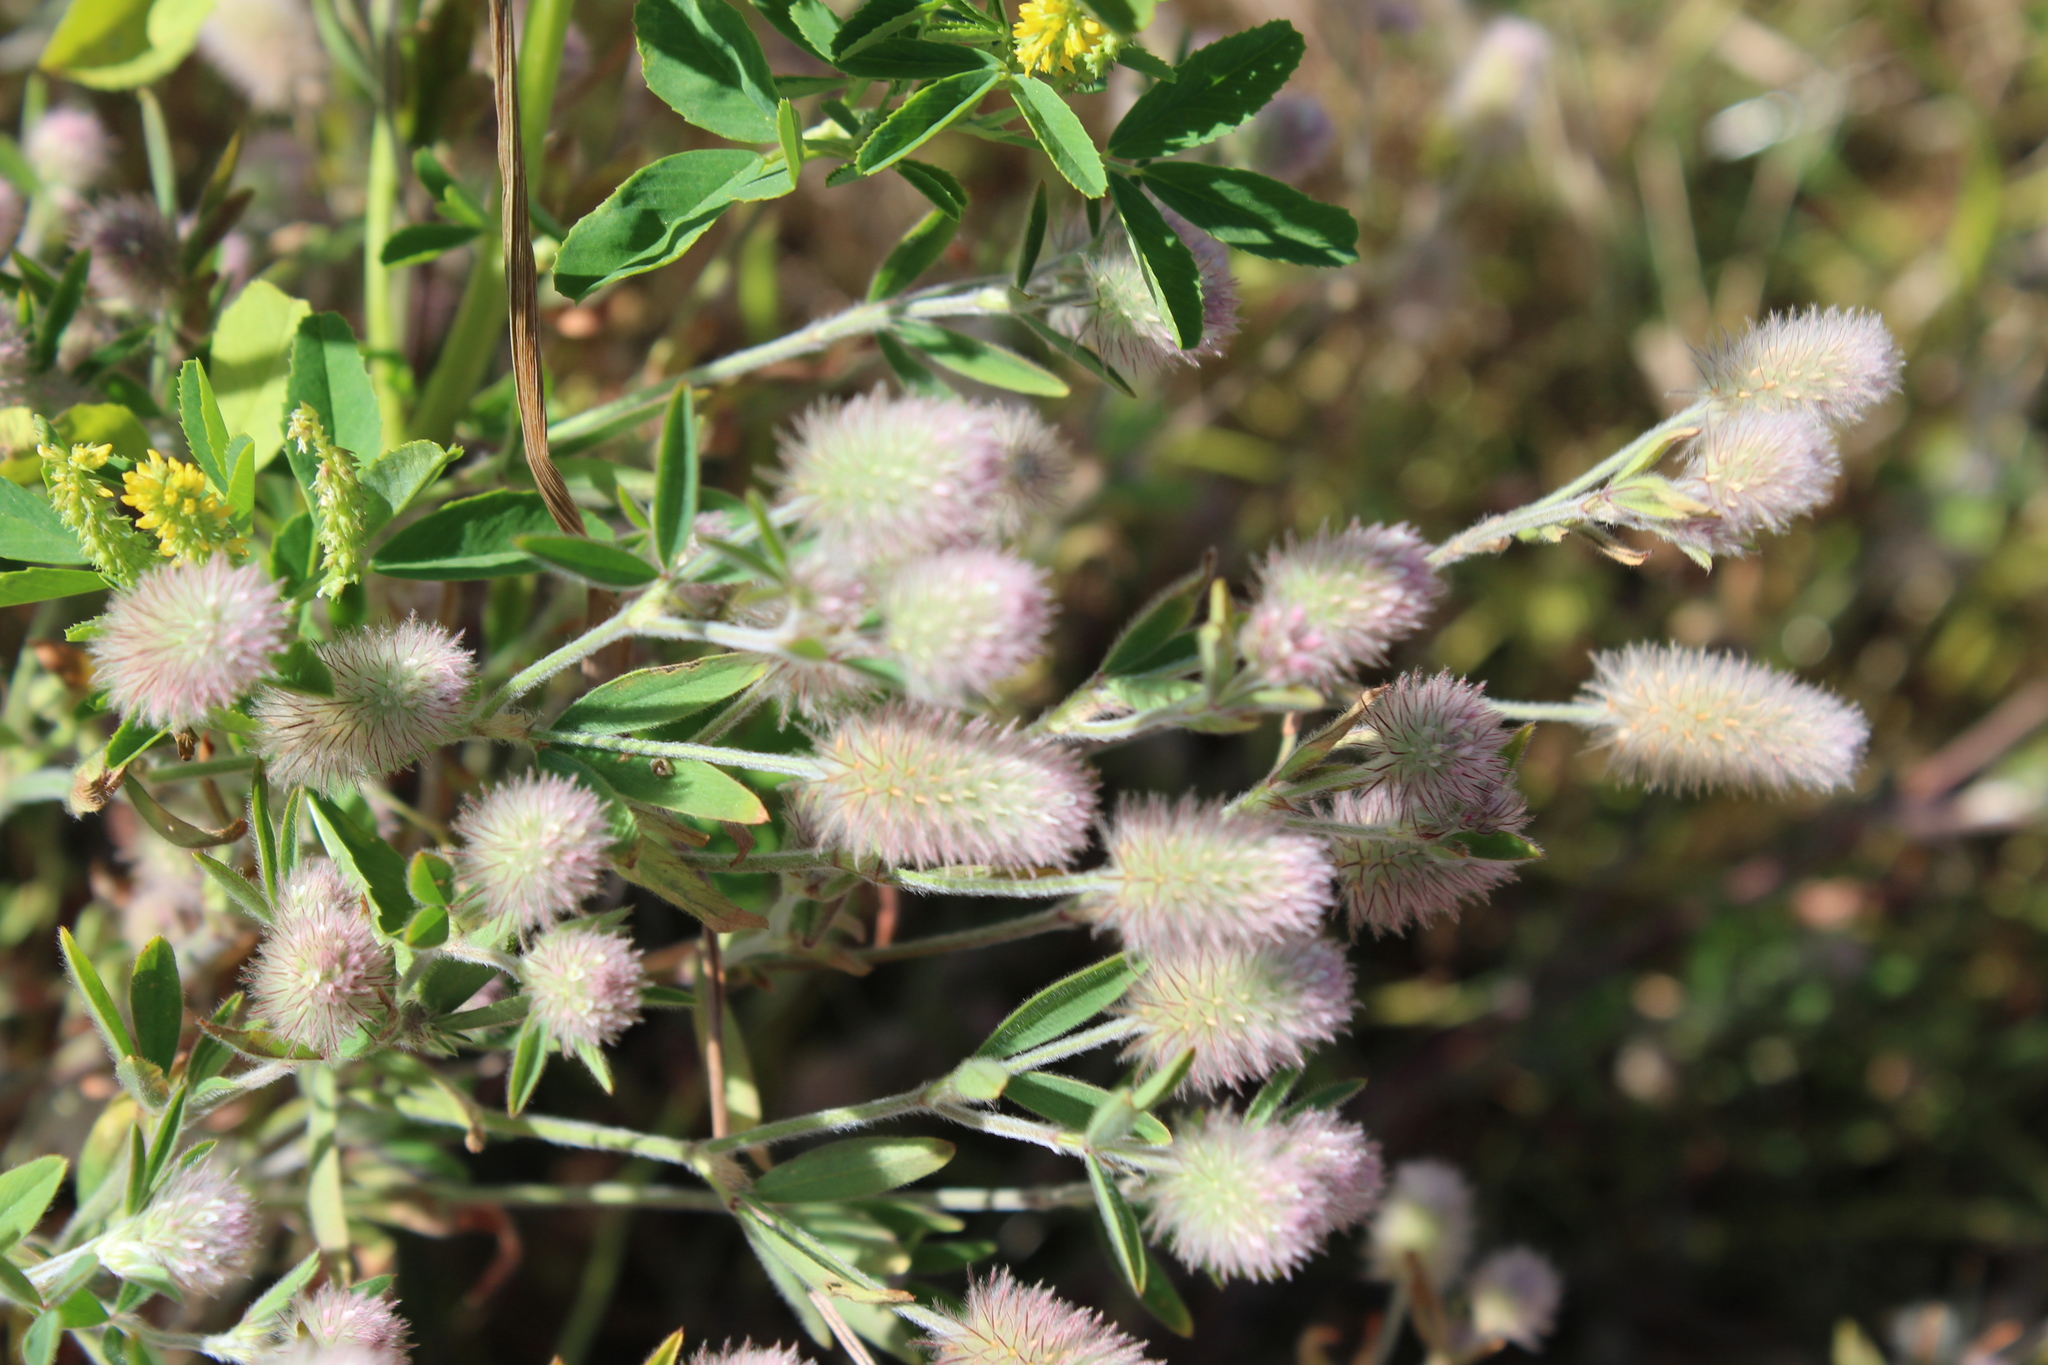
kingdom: Plantae
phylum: Tracheophyta
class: Magnoliopsida
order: Fabales
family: Fabaceae
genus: Trifolium
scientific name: Trifolium arvense
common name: Hare's-foot clover
